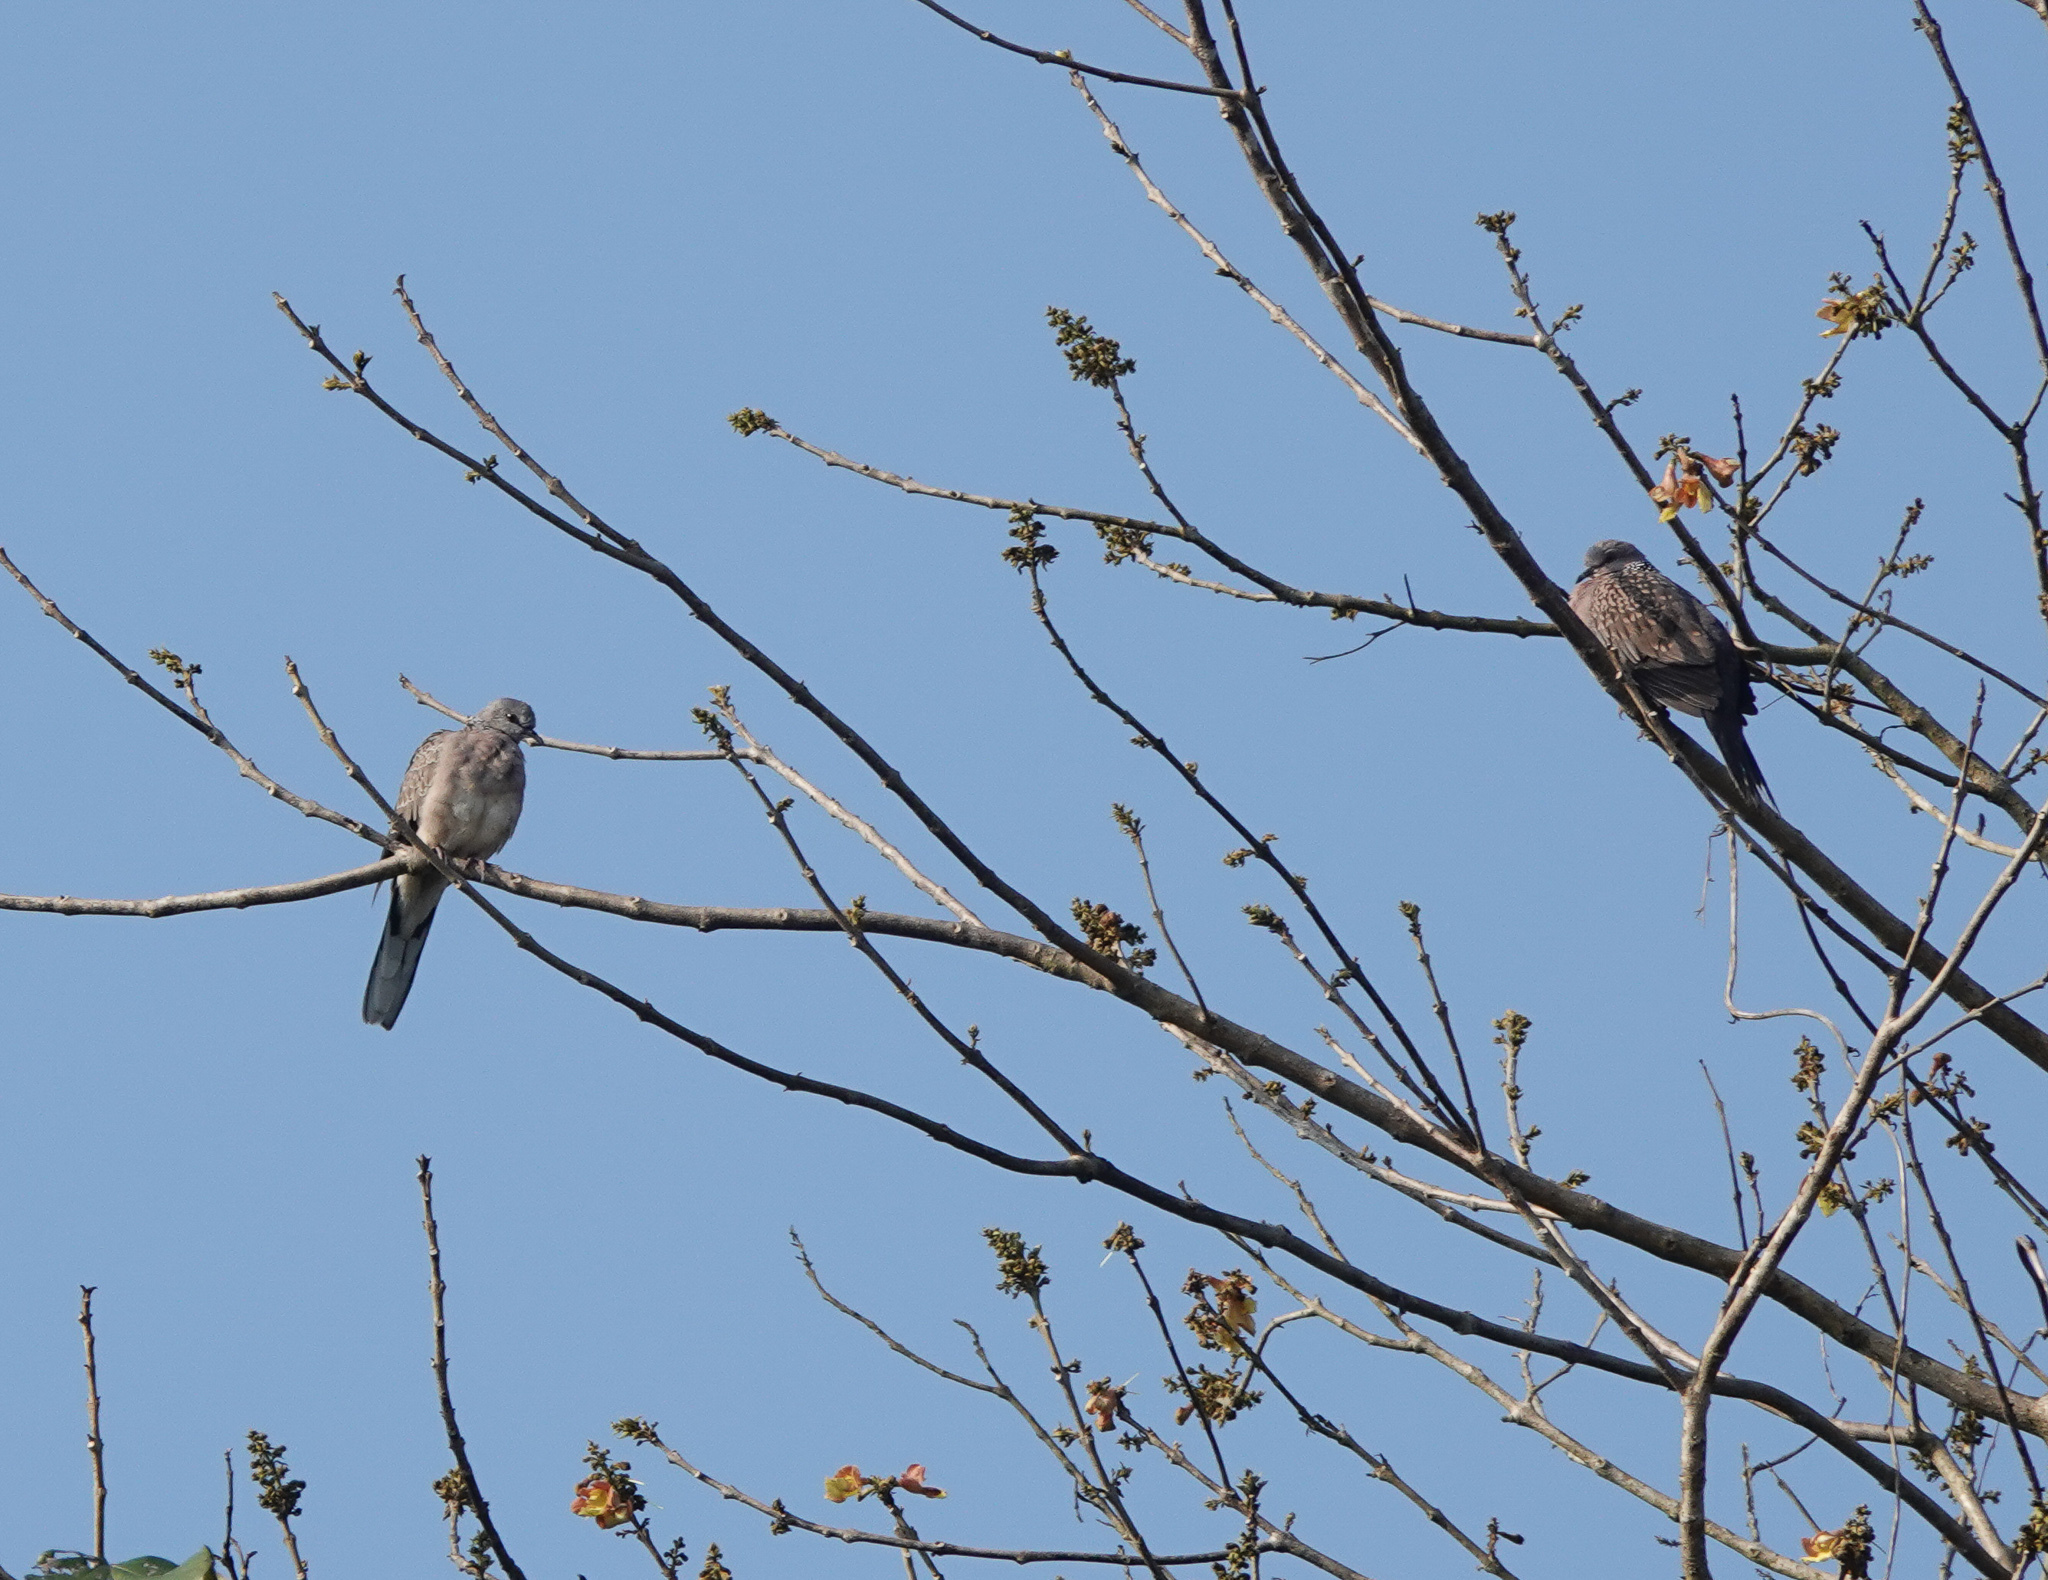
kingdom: Animalia
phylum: Chordata
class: Aves
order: Columbiformes
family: Columbidae
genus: Spilopelia
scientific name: Spilopelia chinensis
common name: Spotted dove
